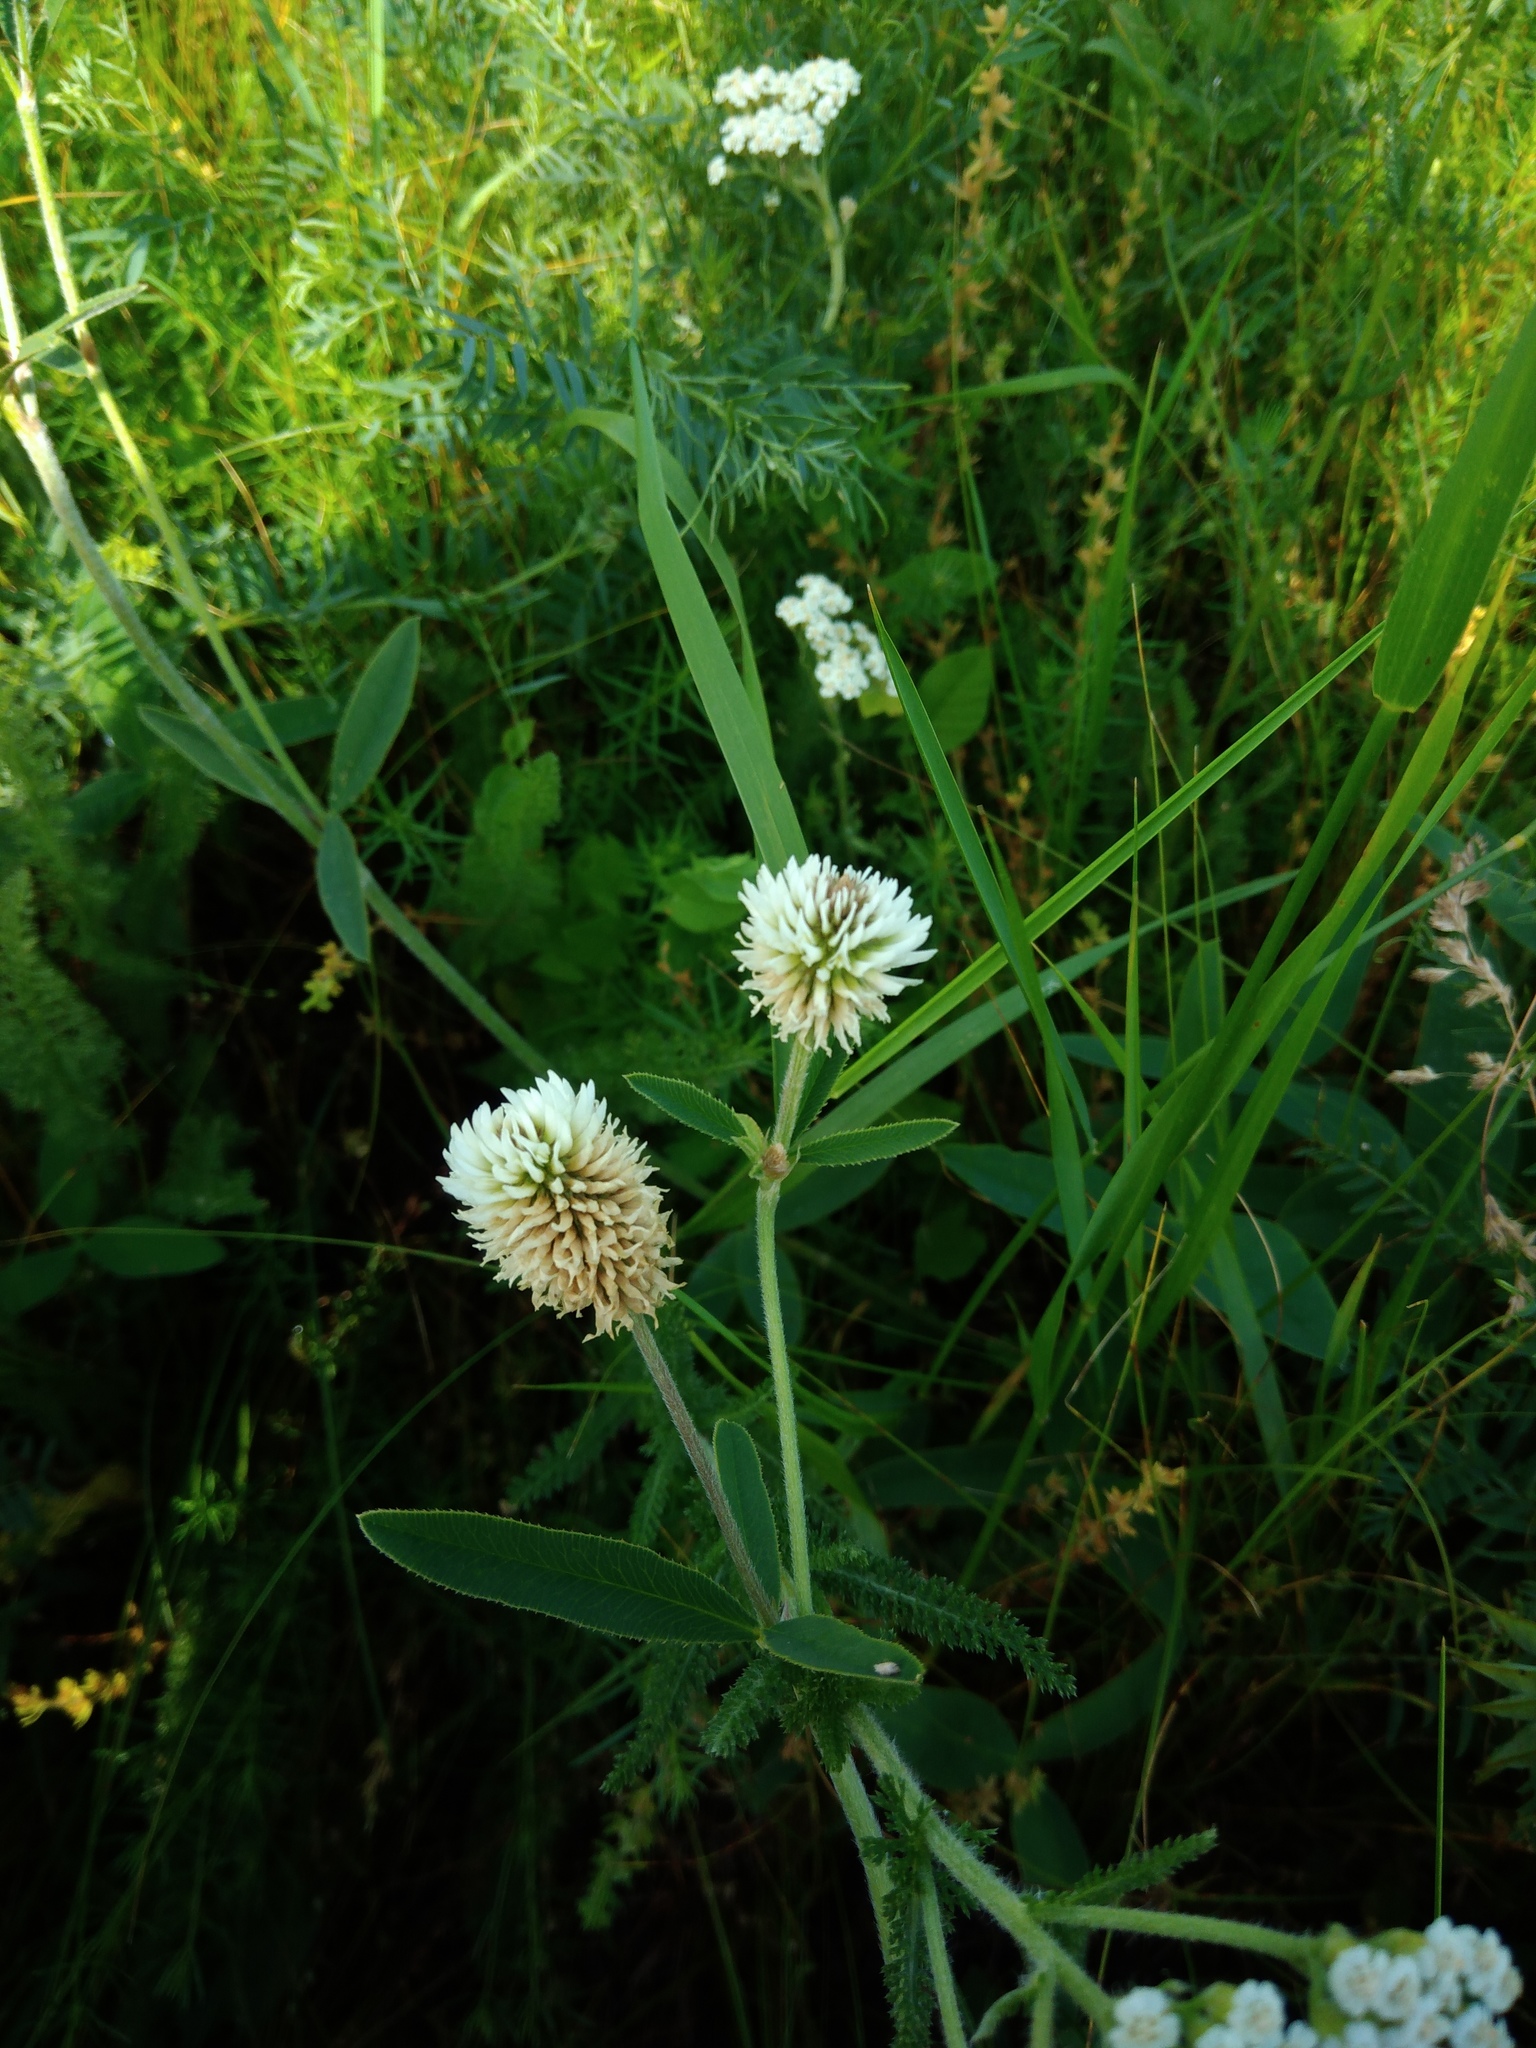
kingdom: Plantae
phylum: Tracheophyta
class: Magnoliopsida
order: Fabales
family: Fabaceae
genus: Trifolium
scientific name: Trifolium montanum
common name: Mountain clover
